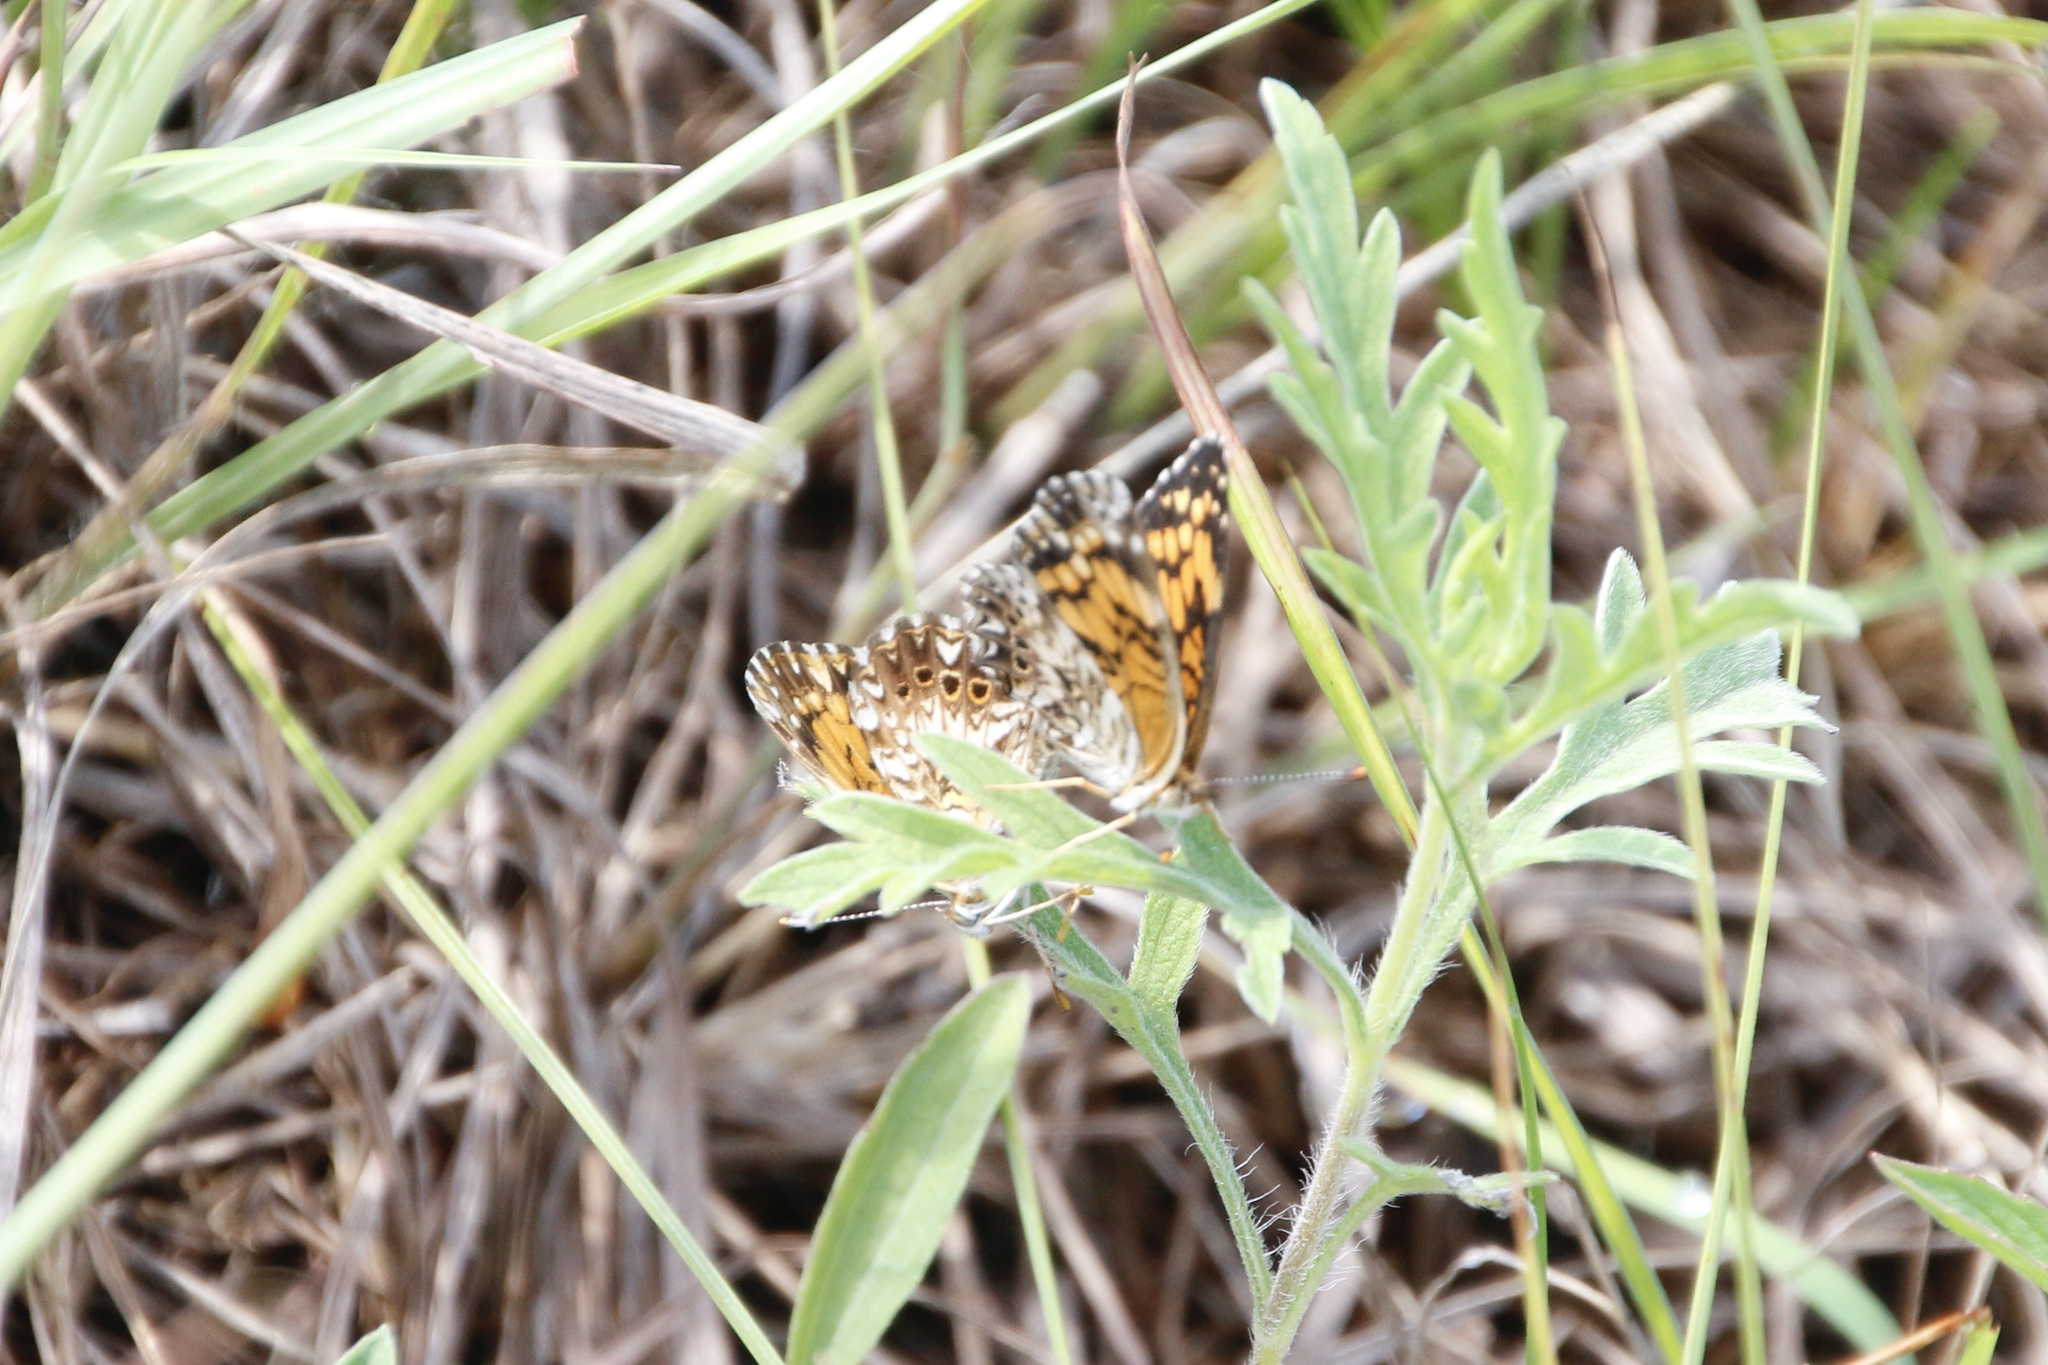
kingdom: Animalia
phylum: Arthropoda
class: Insecta
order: Lepidoptera
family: Nymphalidae
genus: Chlosyne
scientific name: Chlosyne gorgone
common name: Gorgone checkerspot
